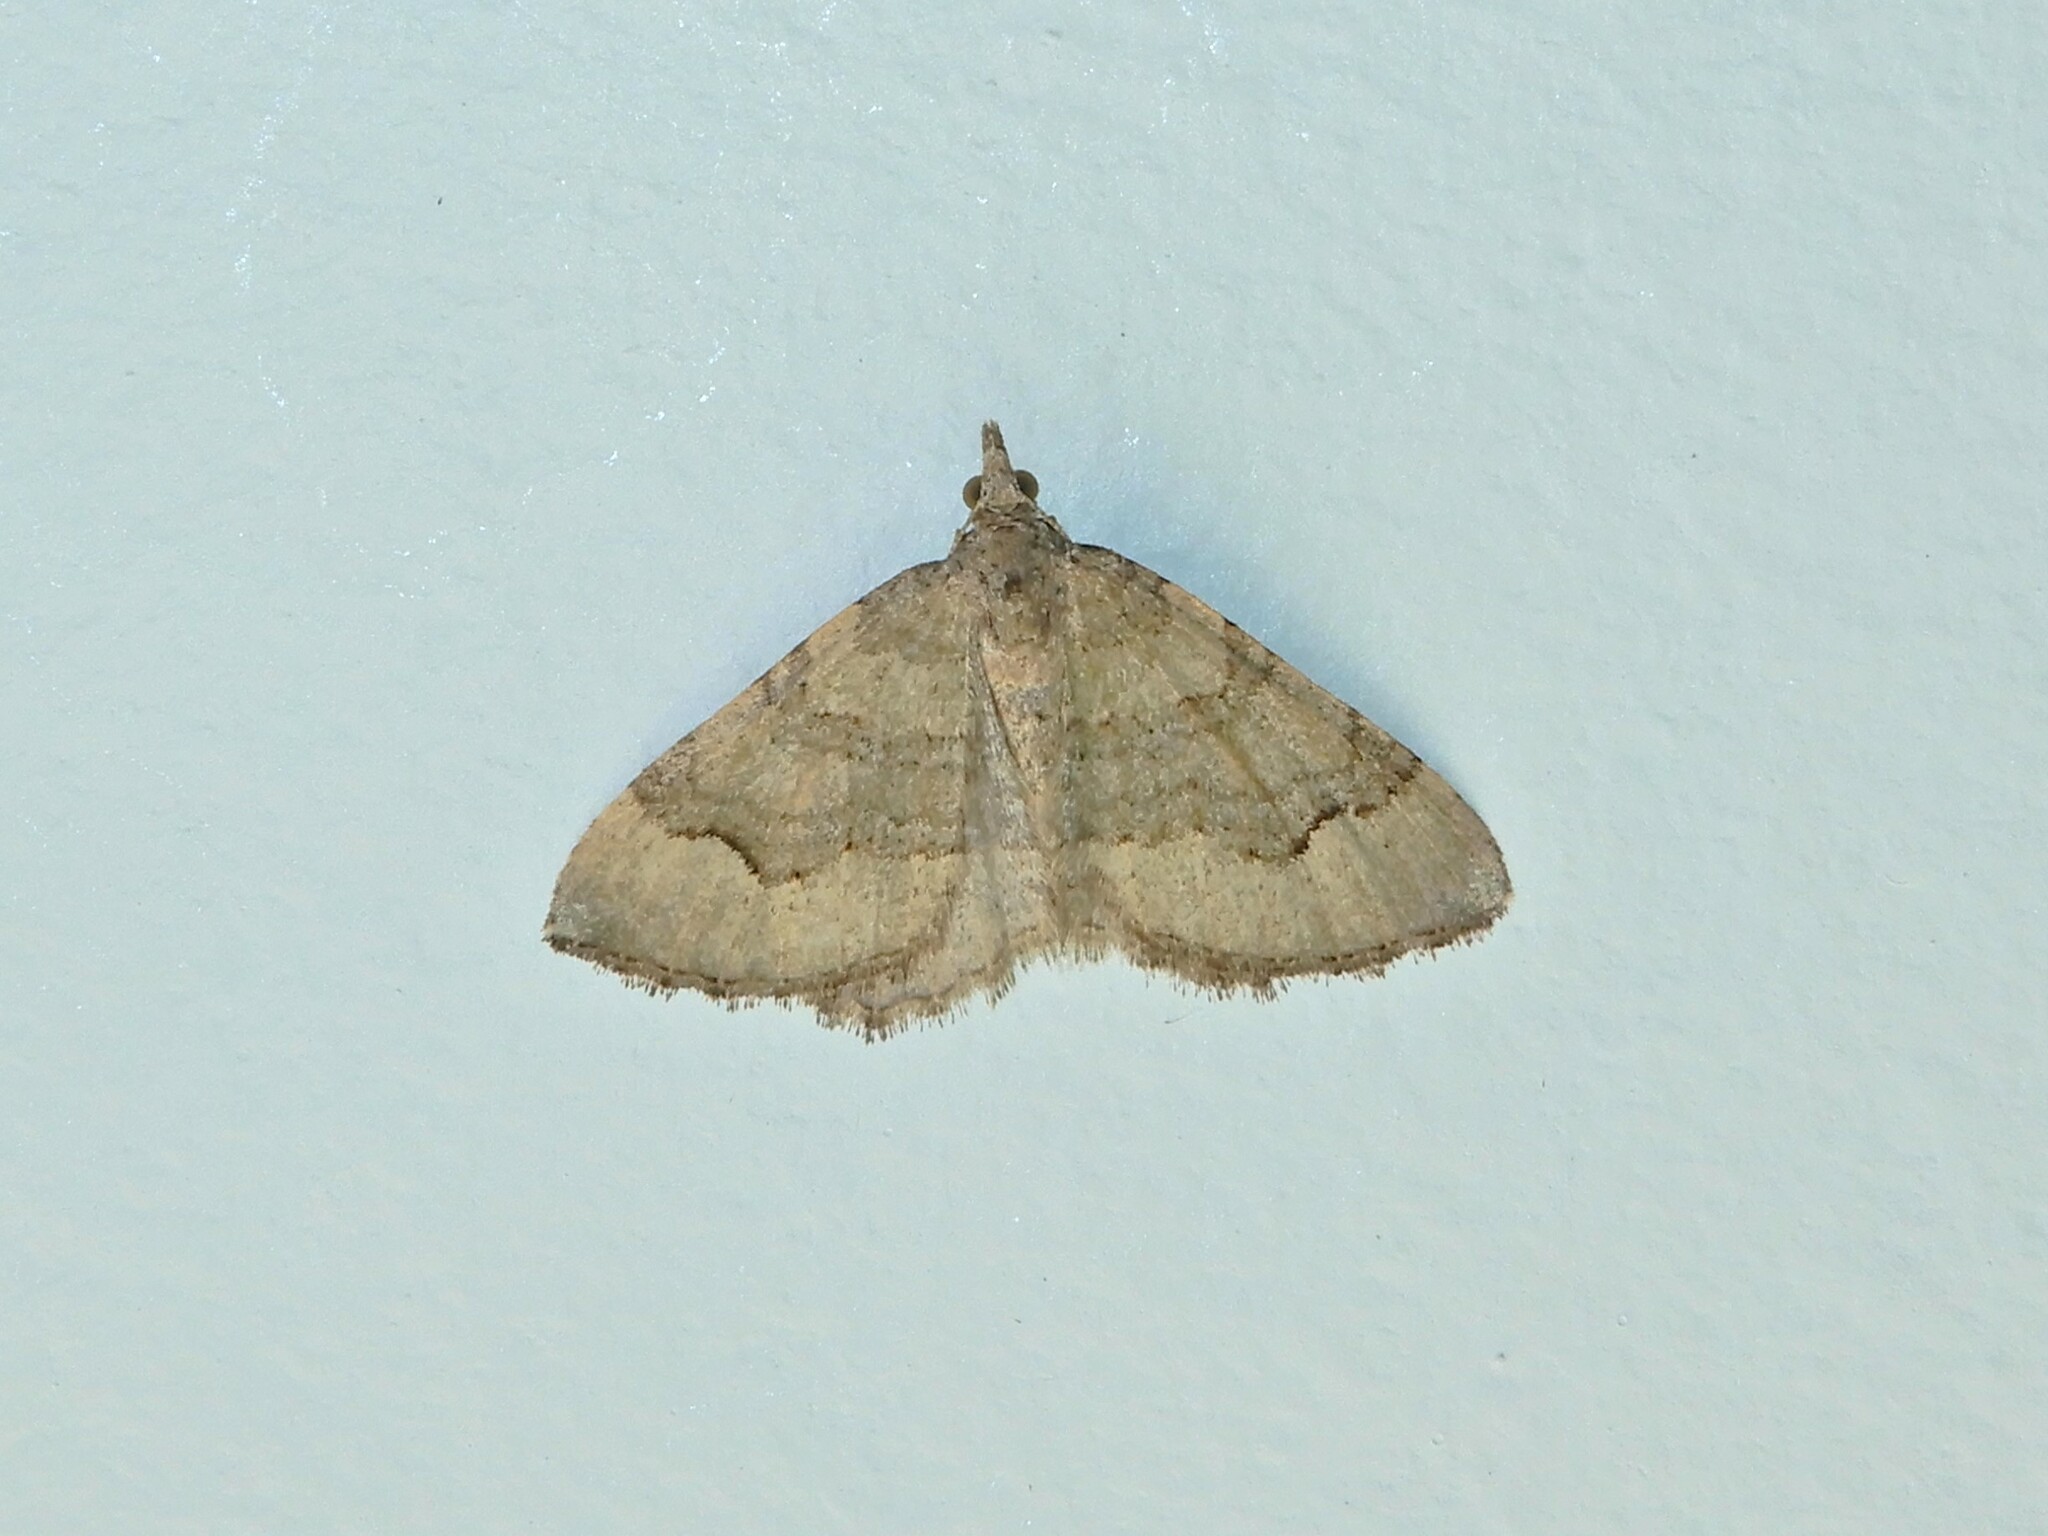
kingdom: Animalia
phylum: Arthropoda
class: Insecta
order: Lepidoptera
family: Geometridae
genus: Epyaxa
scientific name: Epyaxa rosearia
